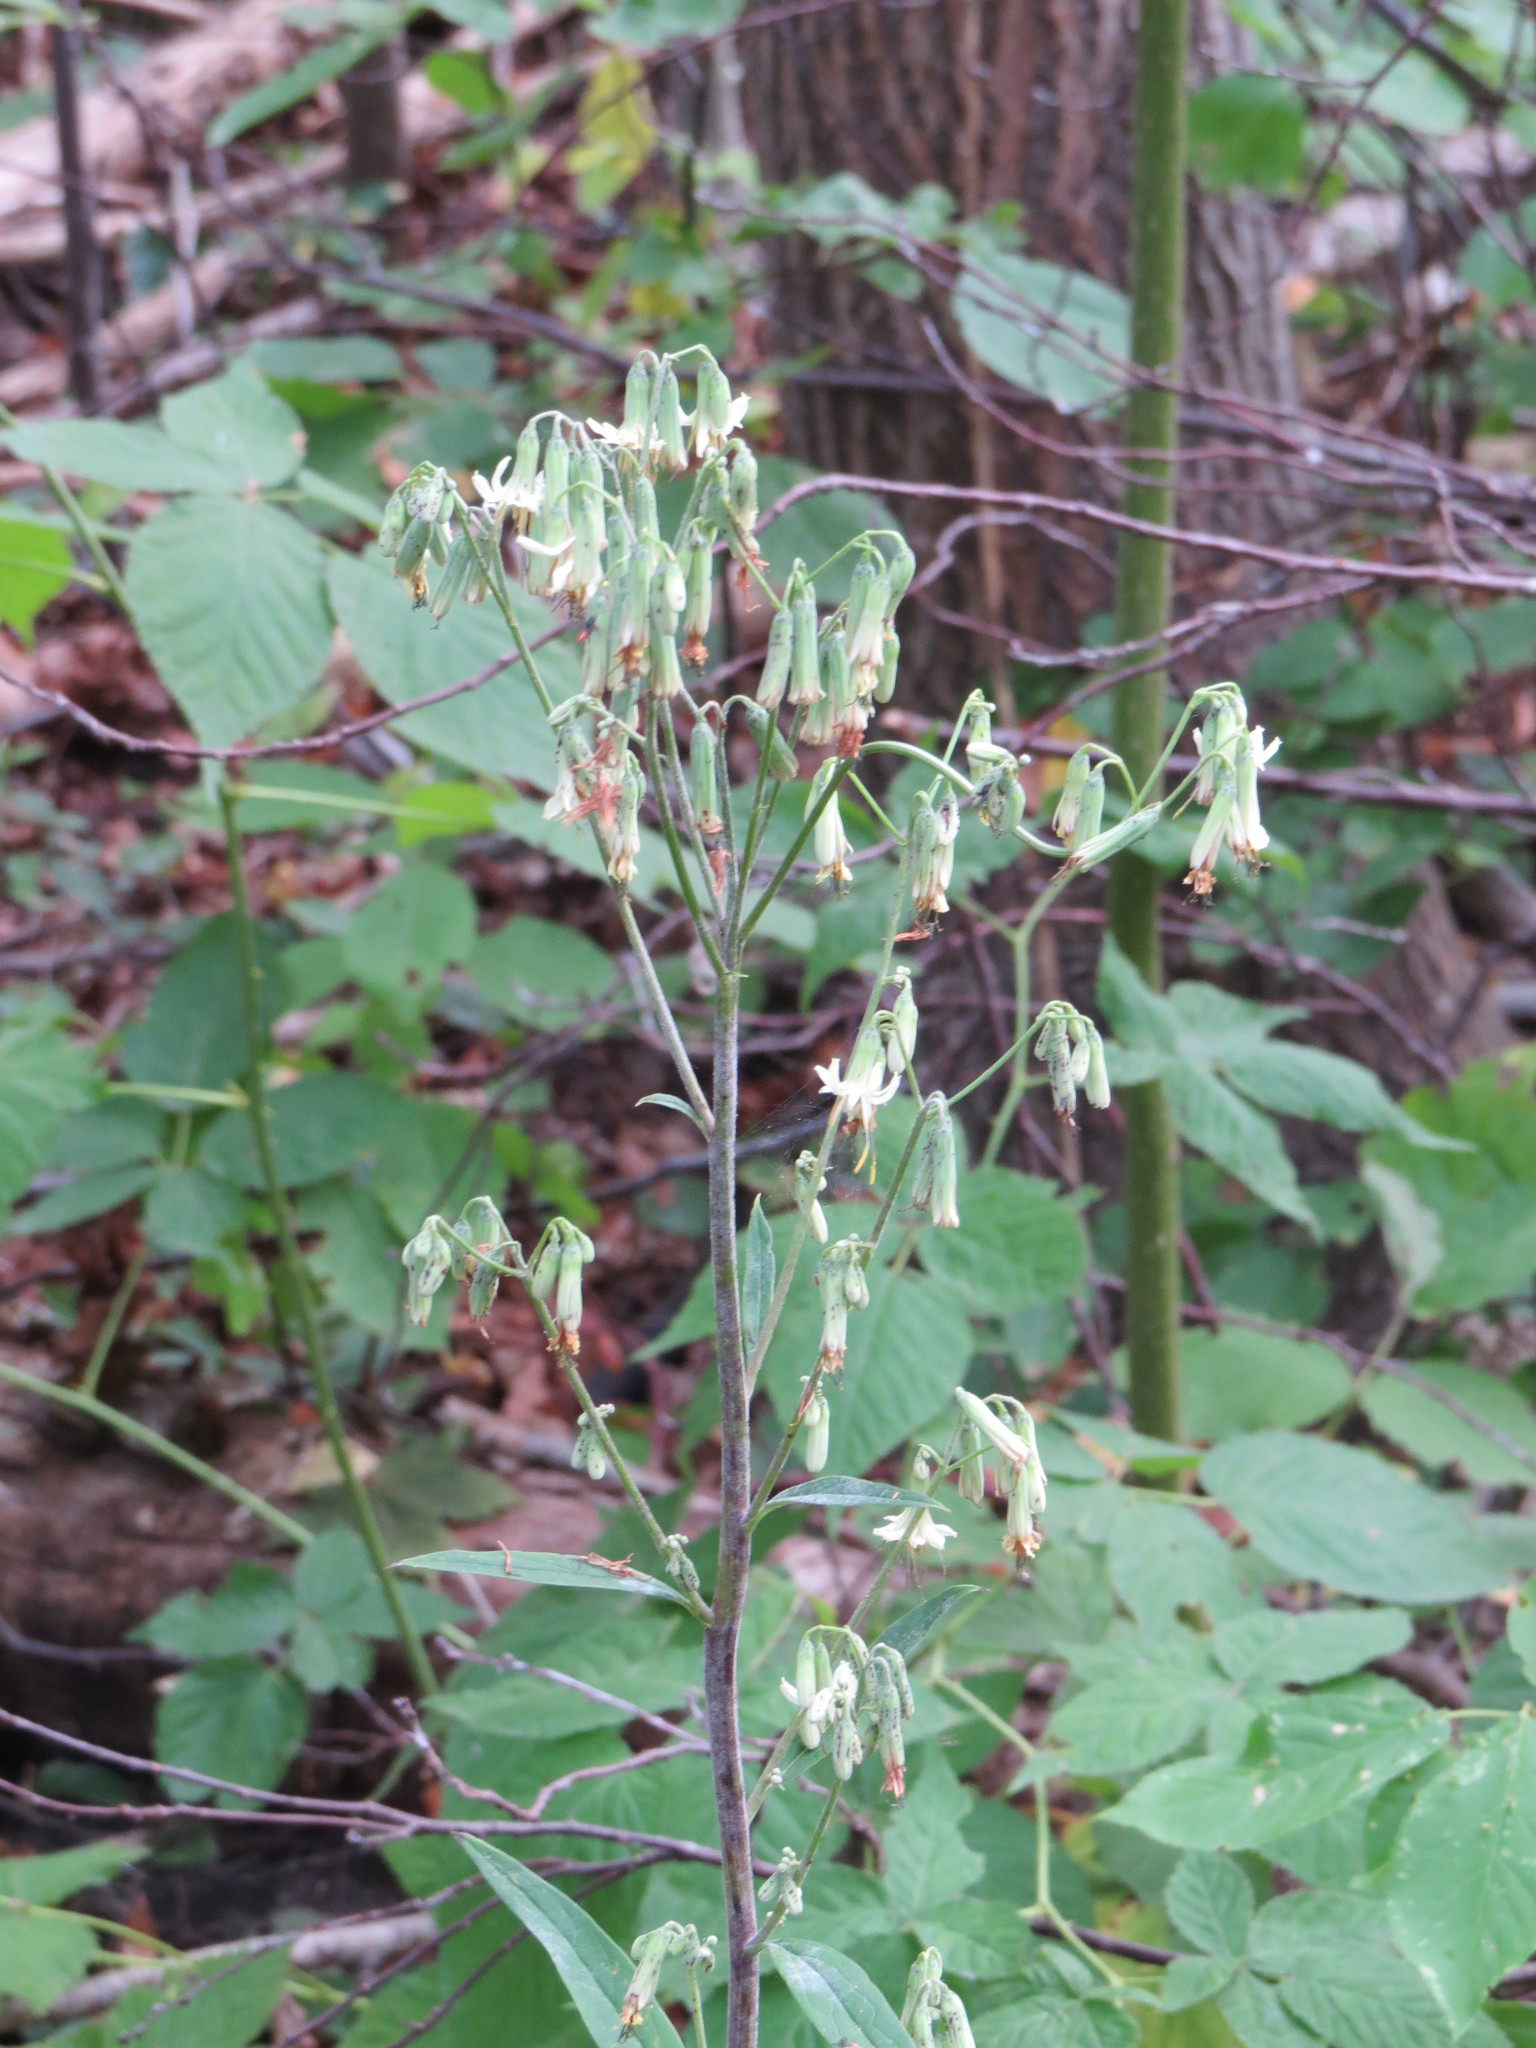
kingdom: Plantae
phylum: Tracheophyta
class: Magnoliopsida
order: Asterales
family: Asteraceae
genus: Nabalus
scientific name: Nabalus trifoliolatus
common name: Gall-of-the-earth
